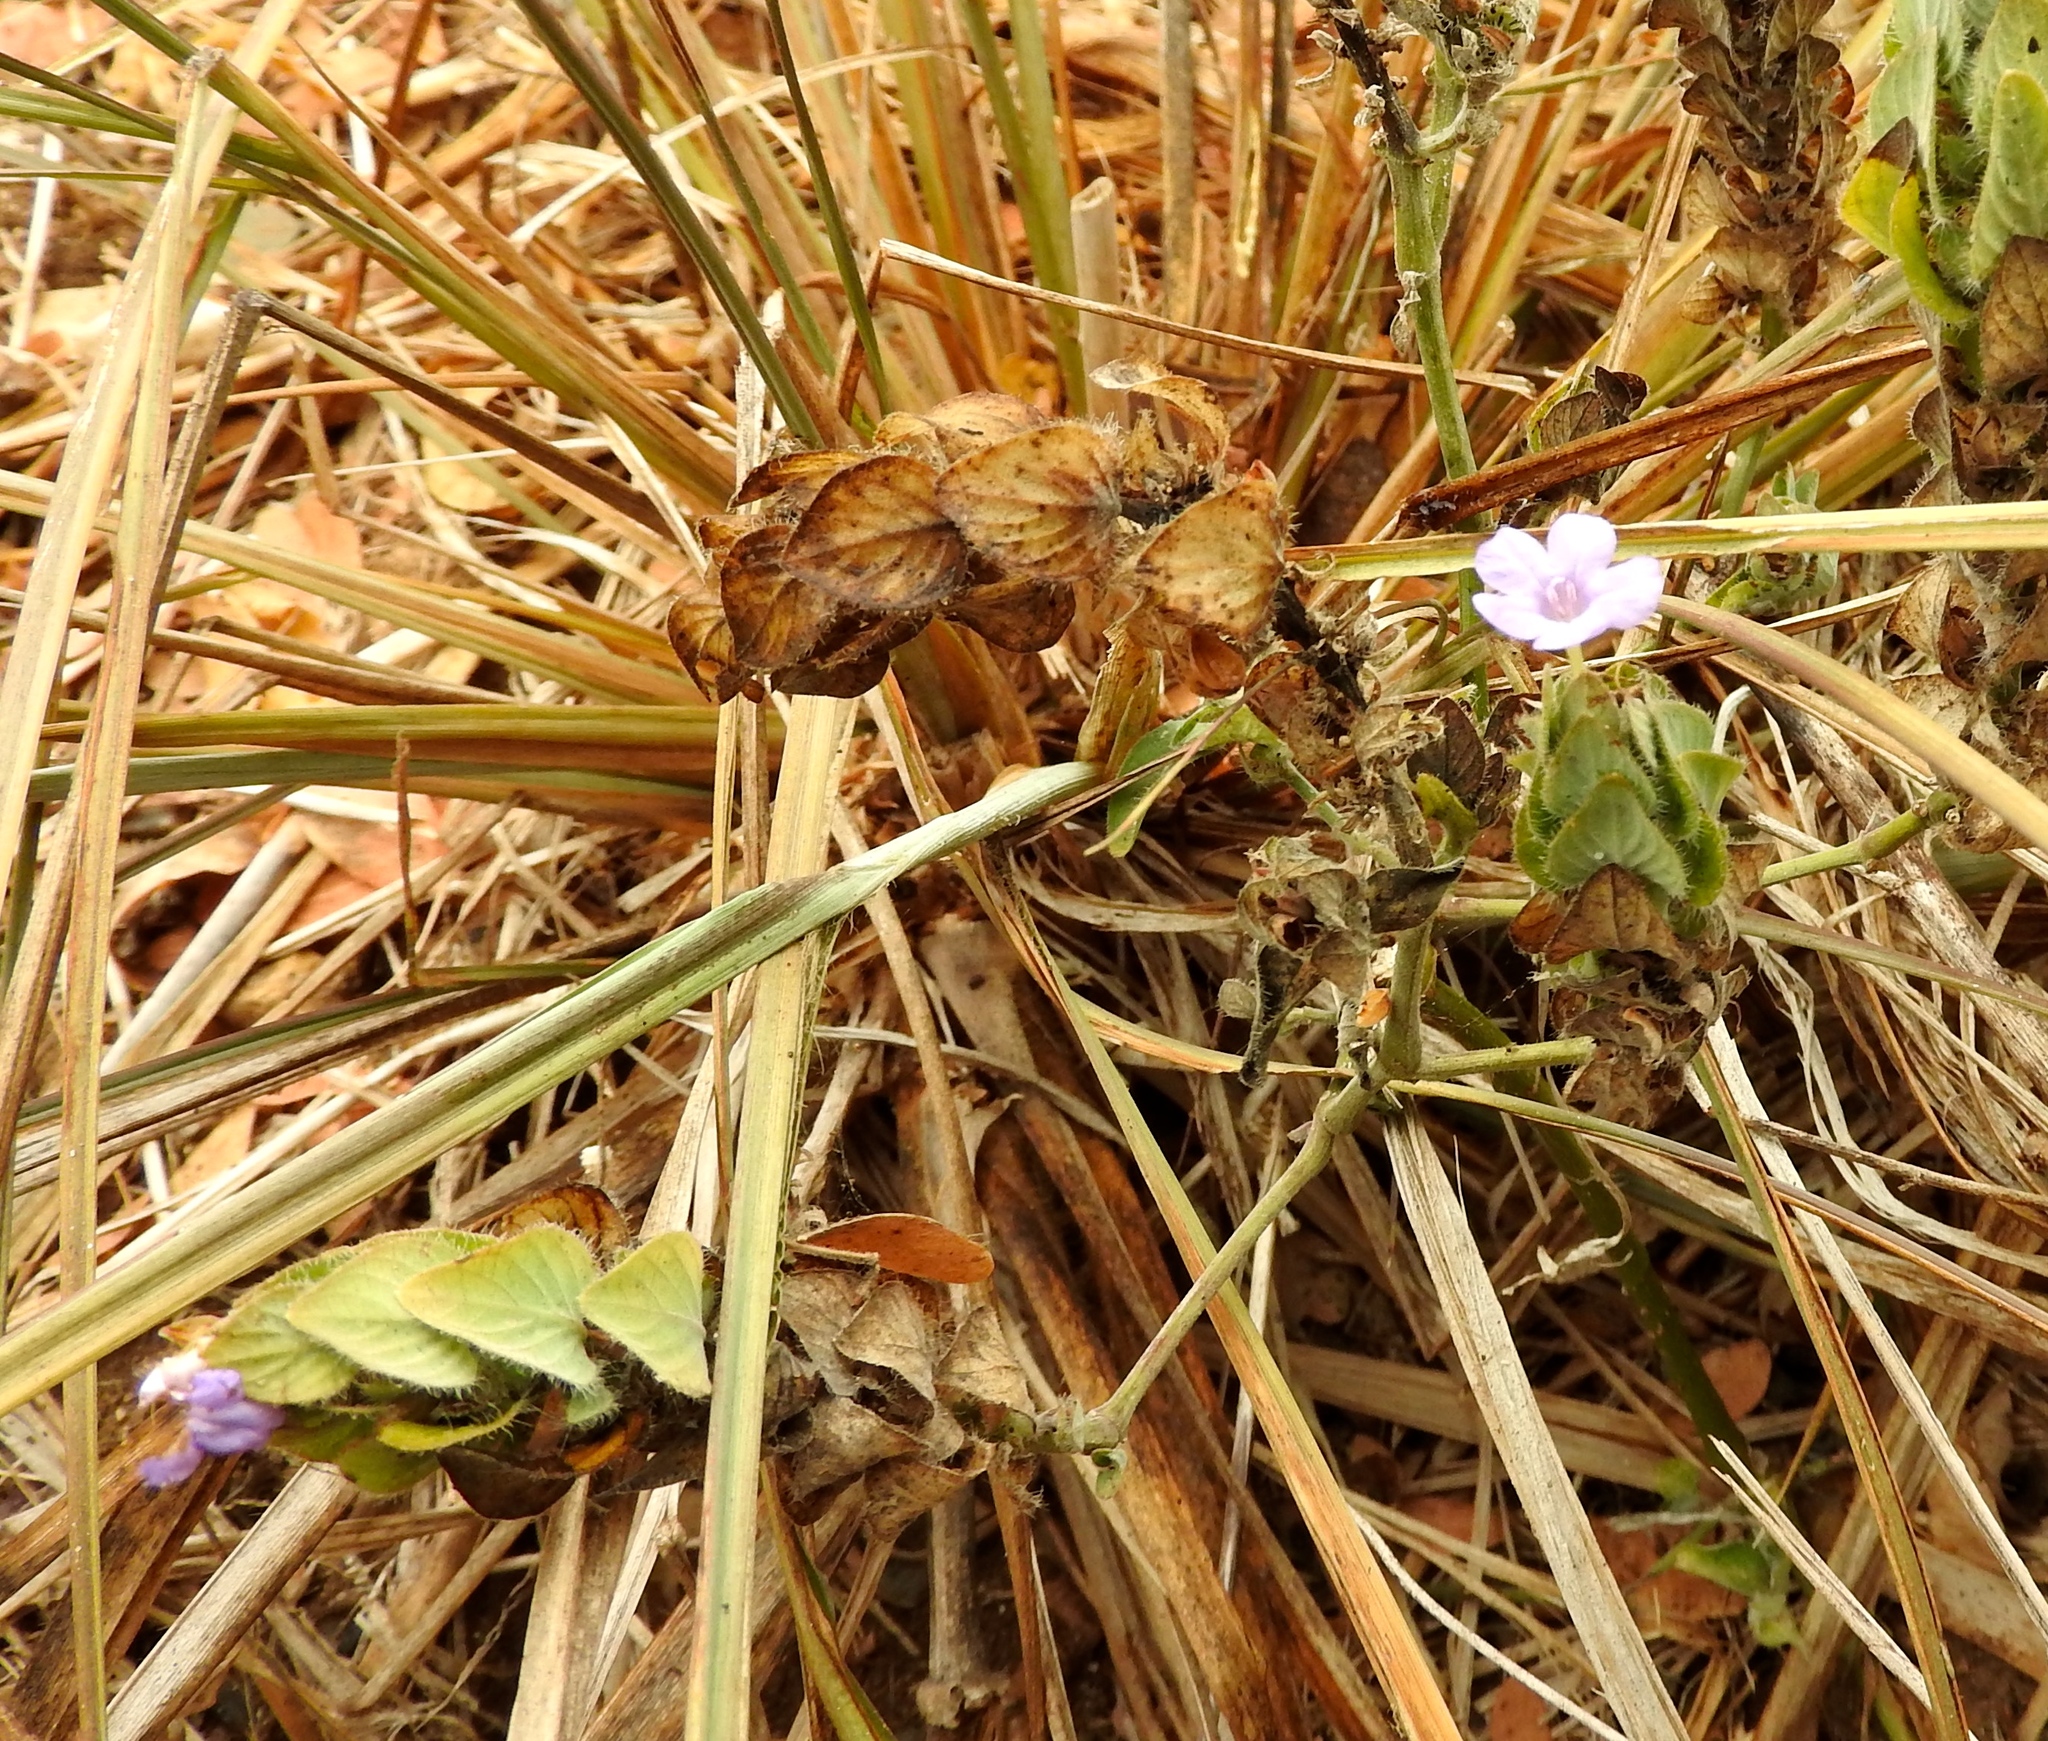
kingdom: Plantae
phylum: Tracheophyta
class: Magnoliopsida
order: Lamiales
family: Acanthaceae
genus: Ruellia
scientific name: Ruellia blechum
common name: Browne's blechum
